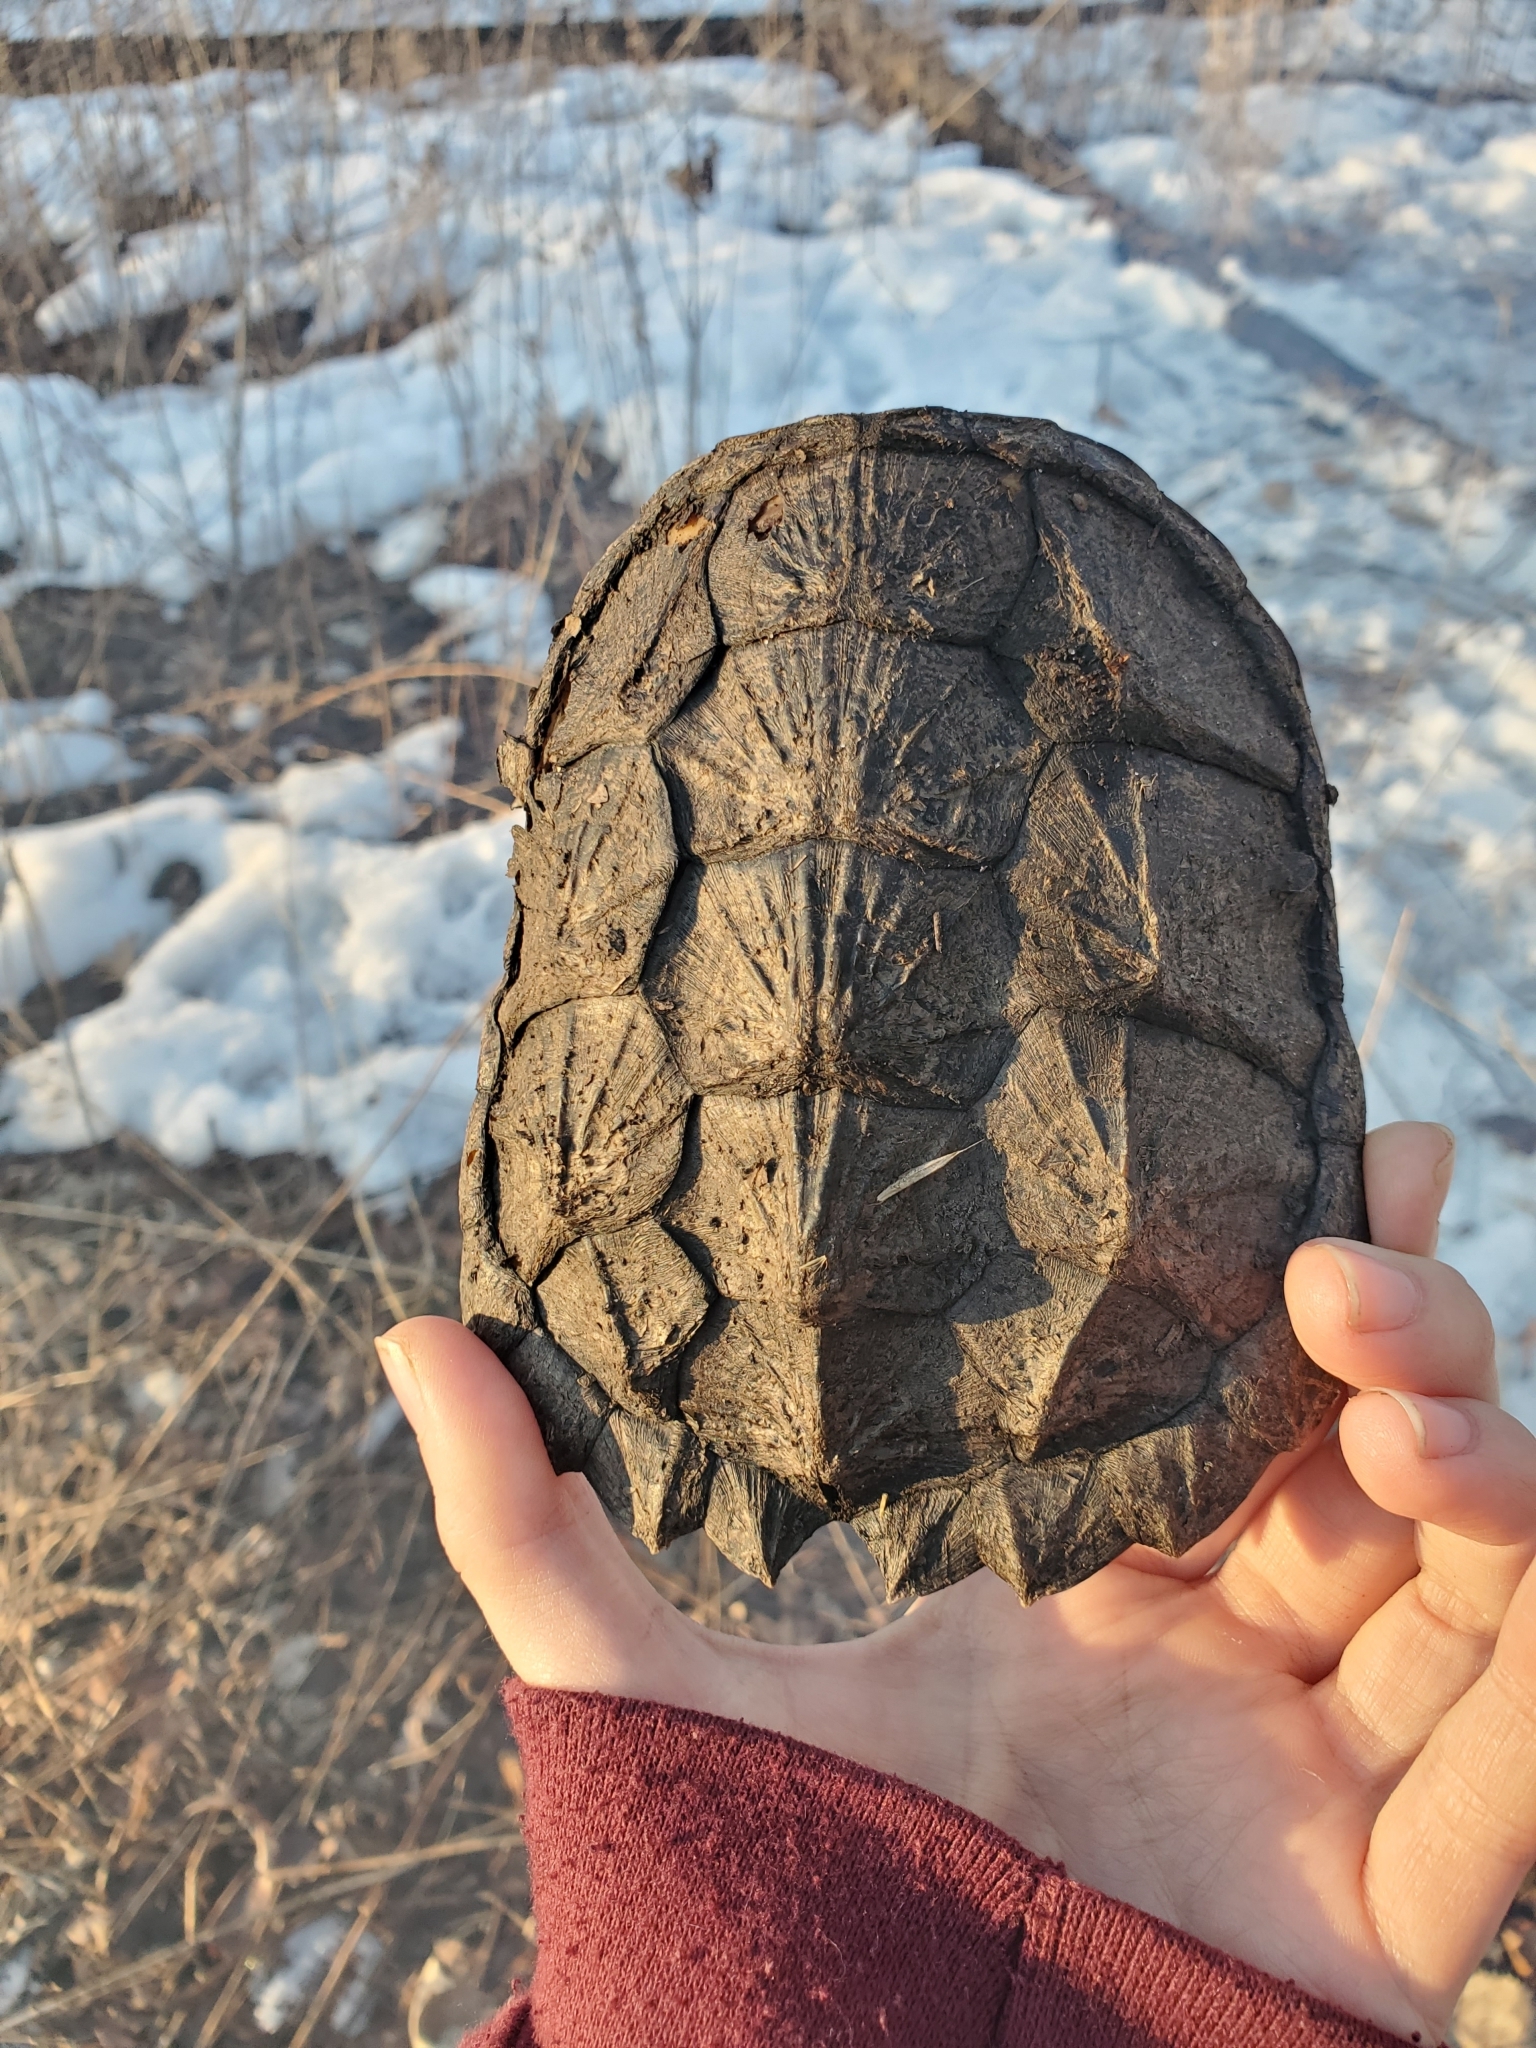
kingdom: Animalia
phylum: Chordata
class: Testudines
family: Chelydridae
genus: Chelydra
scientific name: Chelydra serpentina
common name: Common snapping turtle
